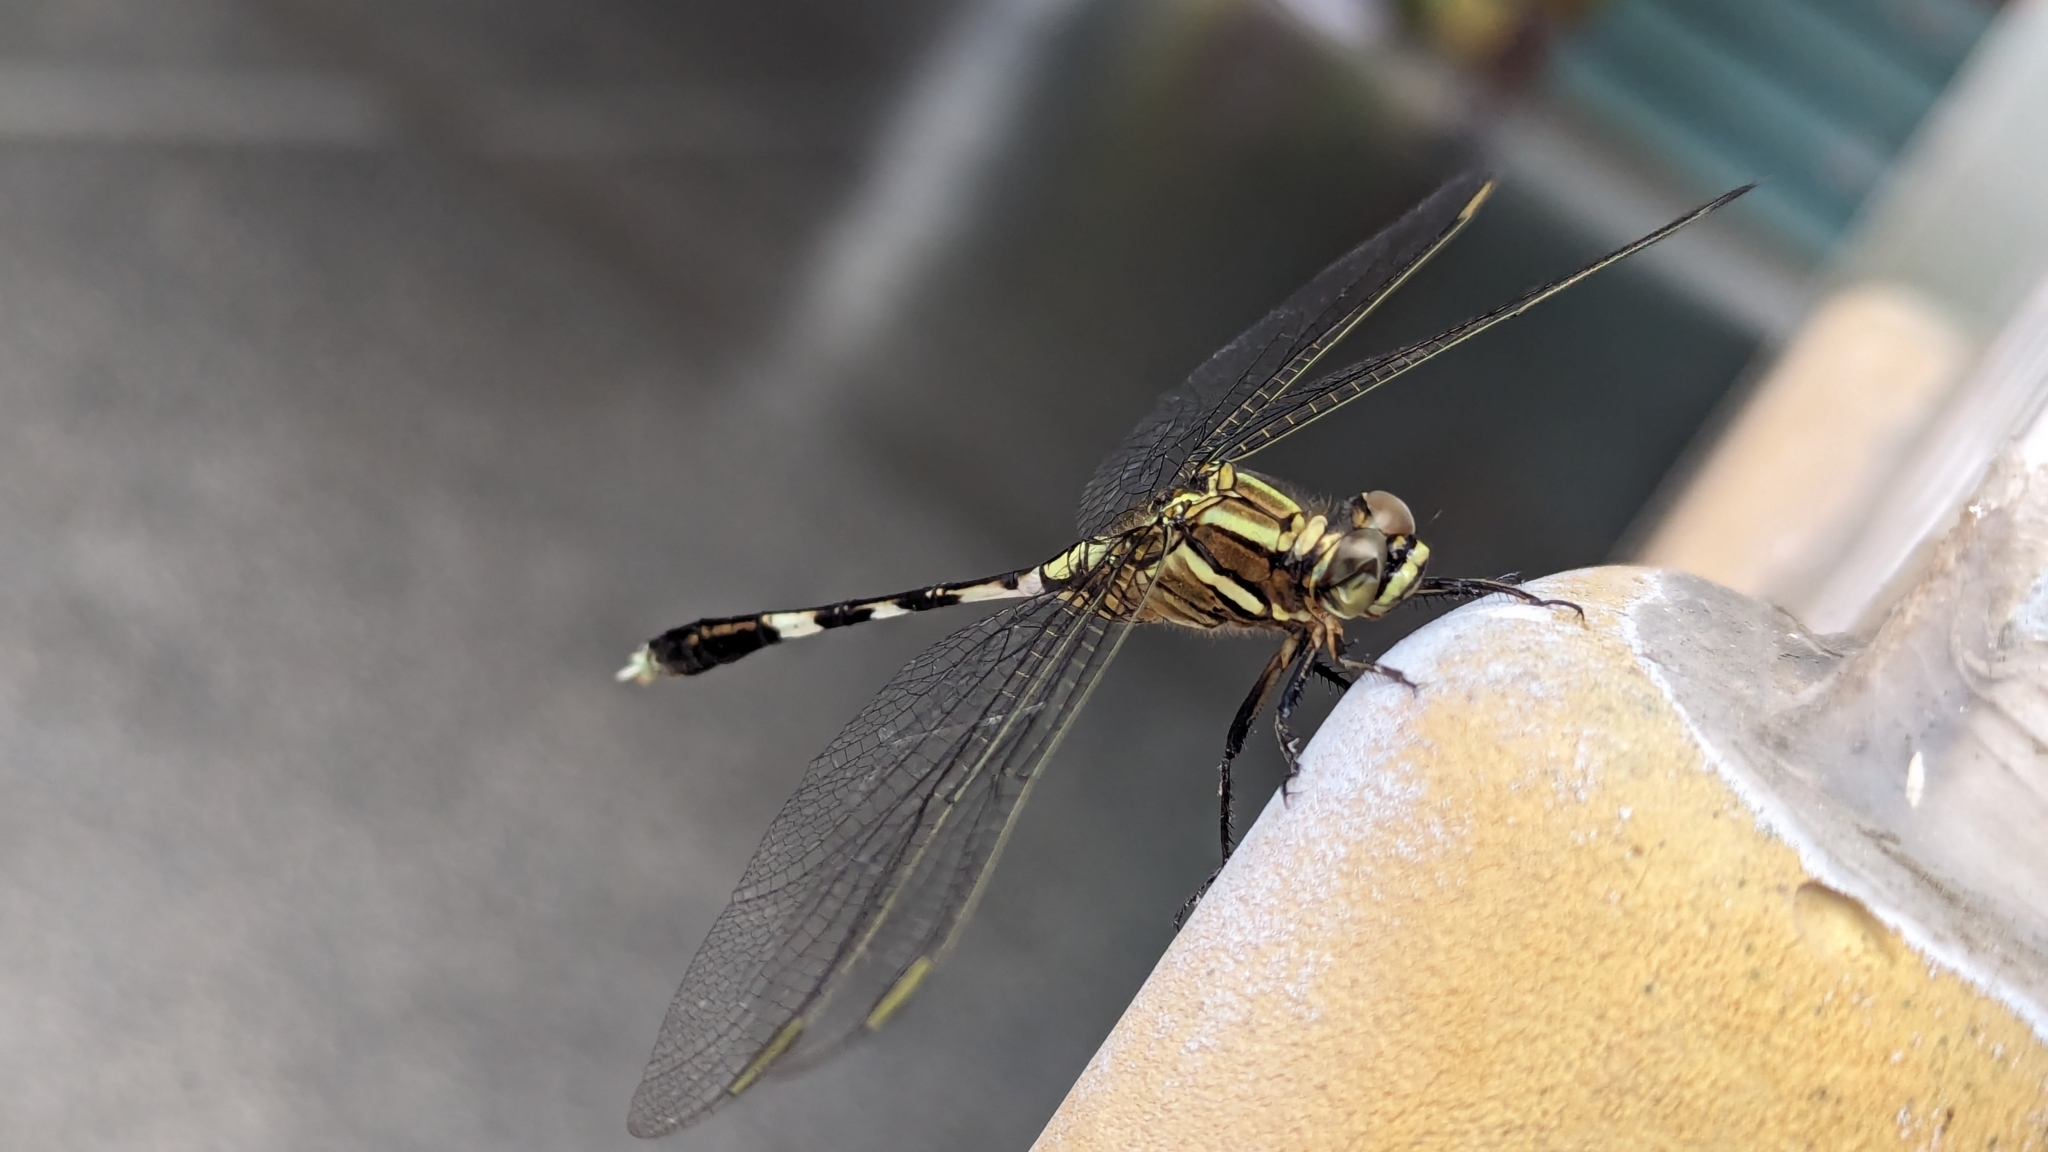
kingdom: Animalia
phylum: Arthropoda
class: Insecta
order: Odonata
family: Libellulidae
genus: Orthetrum
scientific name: Orthetrum sabina
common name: Slender skimmer
